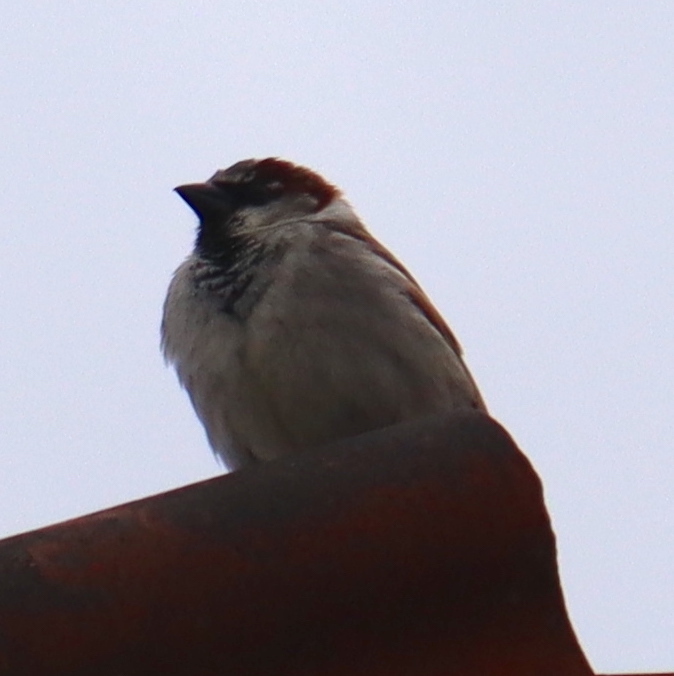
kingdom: Animalia
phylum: Chordata
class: Aves
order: Passeriformes
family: Passeridae
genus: Passer
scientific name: Passer domesticus
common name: House sparrow
